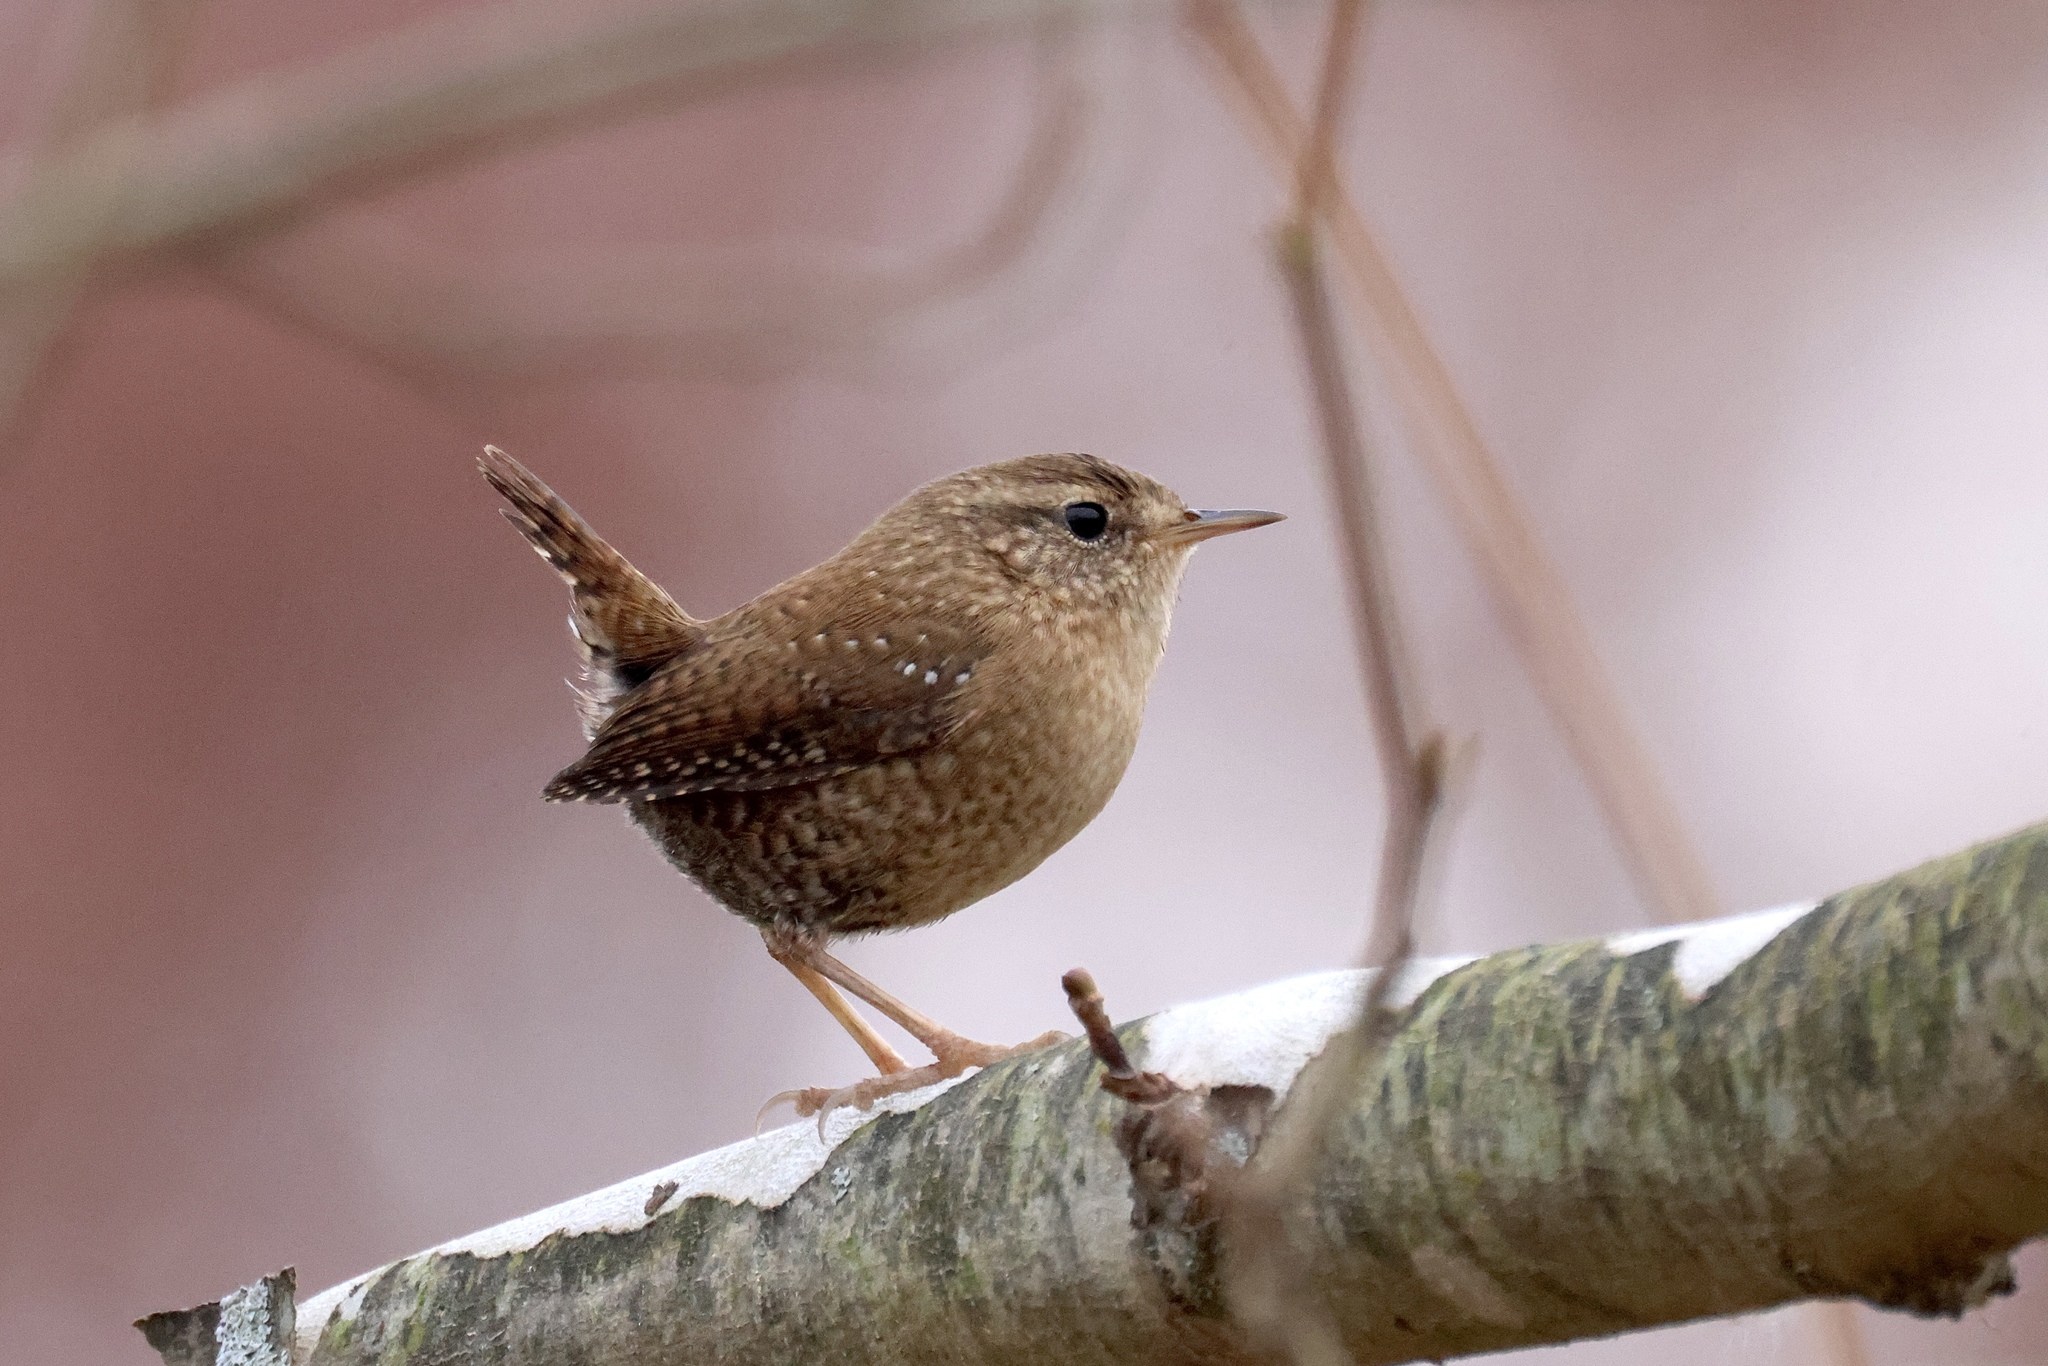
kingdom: Animalia
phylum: Chordata
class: Aves
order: Passeriformes
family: Troglodytidae
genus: Troglodytes
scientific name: Troglodytes hiemalis
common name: Winter wren
